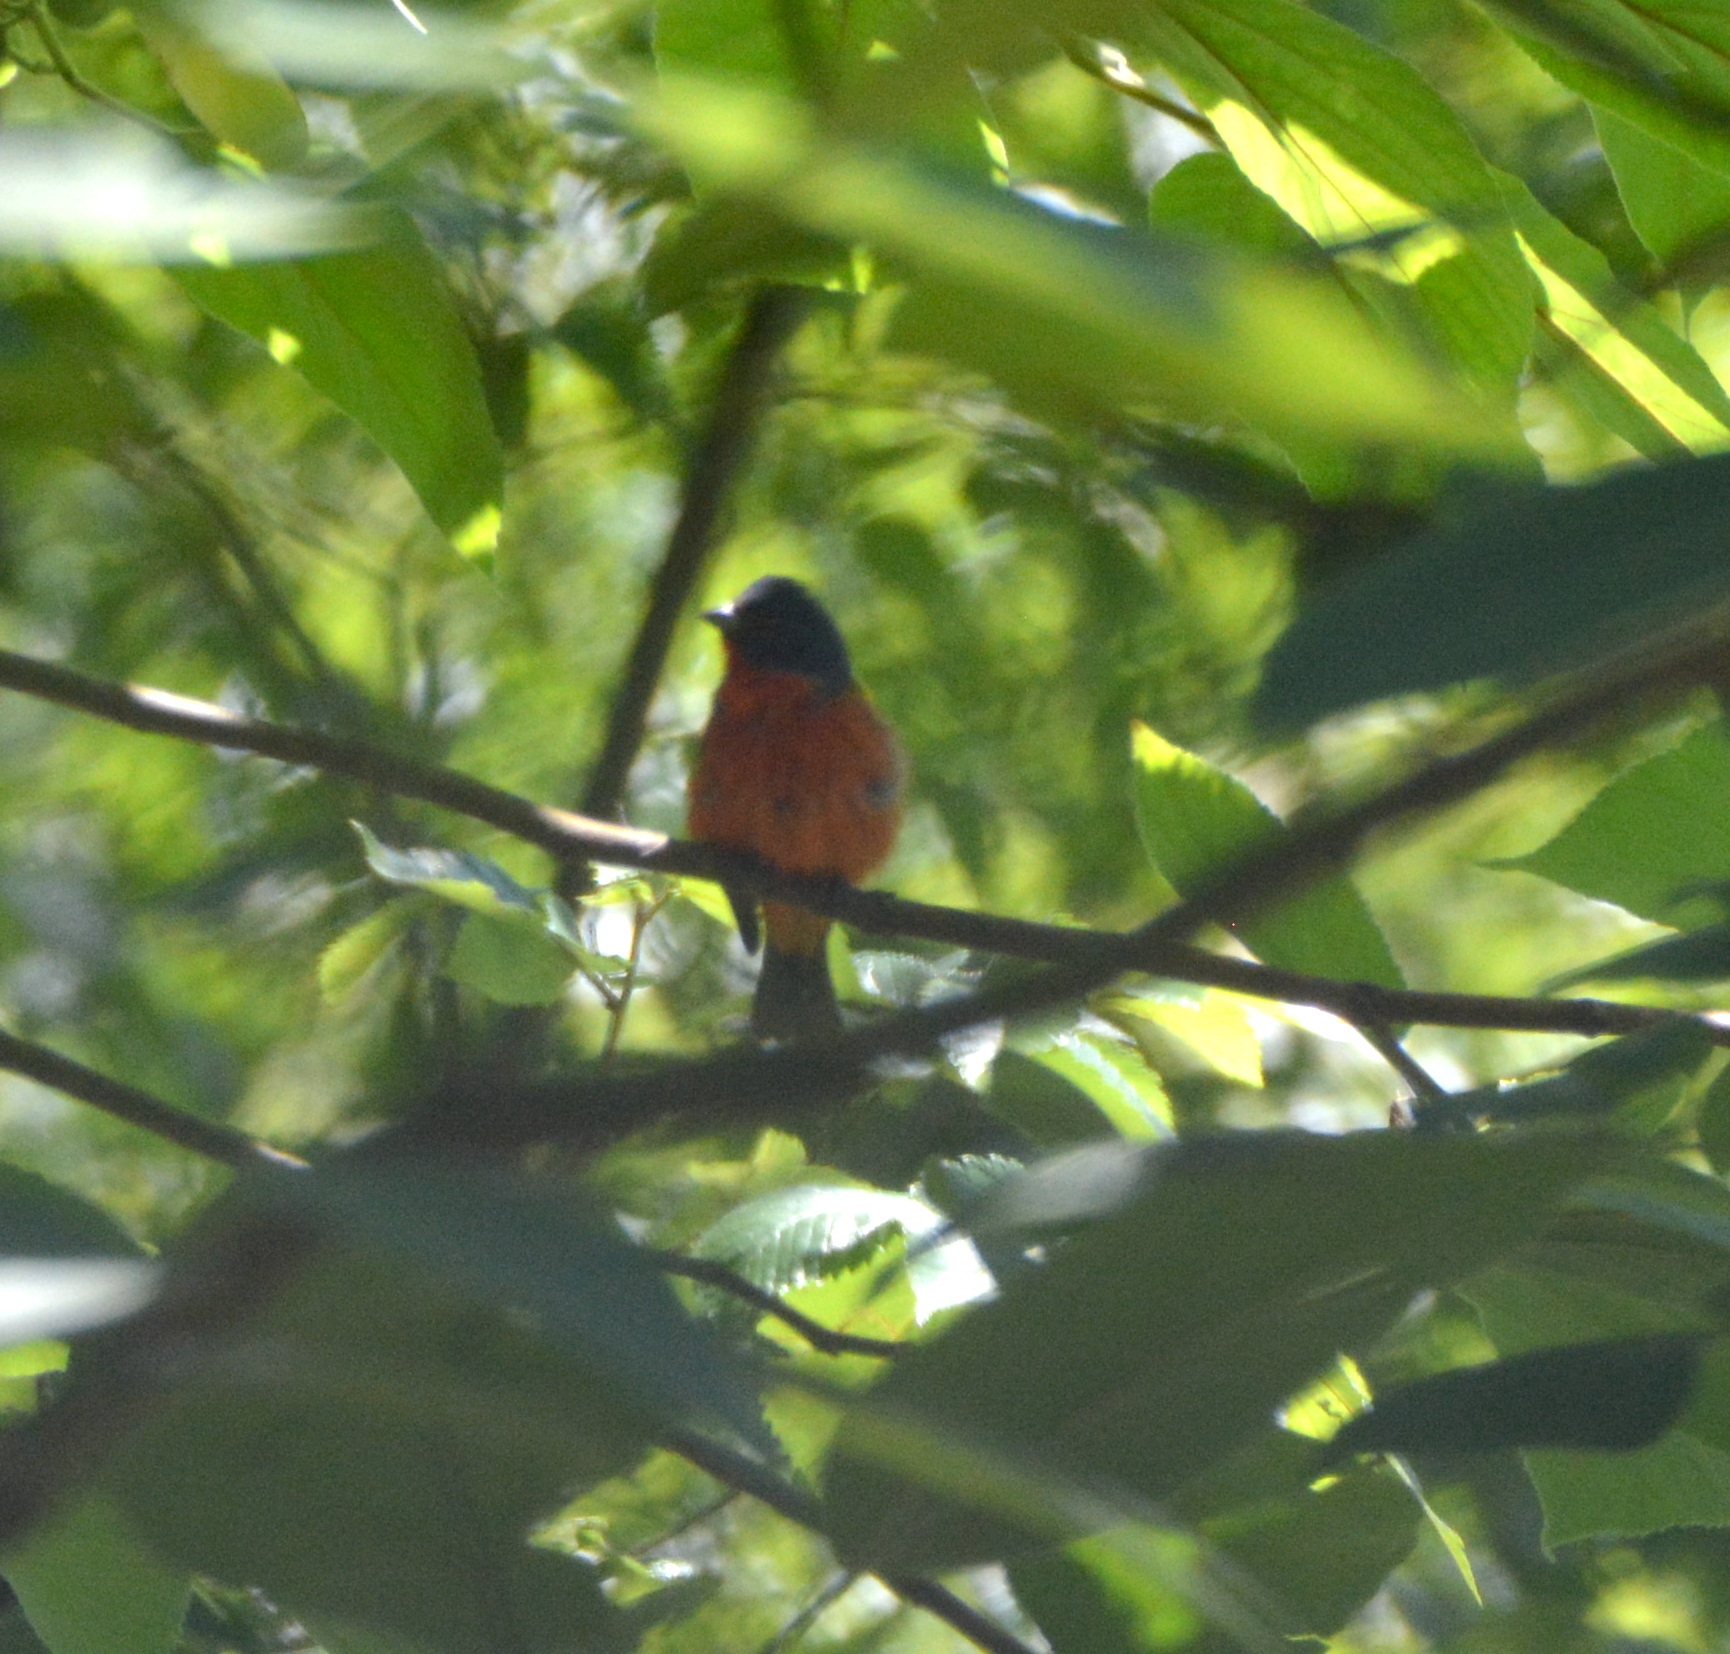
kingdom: Animalia
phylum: Chordata
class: Aves
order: Passeriformes
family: Cardinalidae
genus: Passerina
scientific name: Passerina ciris
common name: Painted bunting
